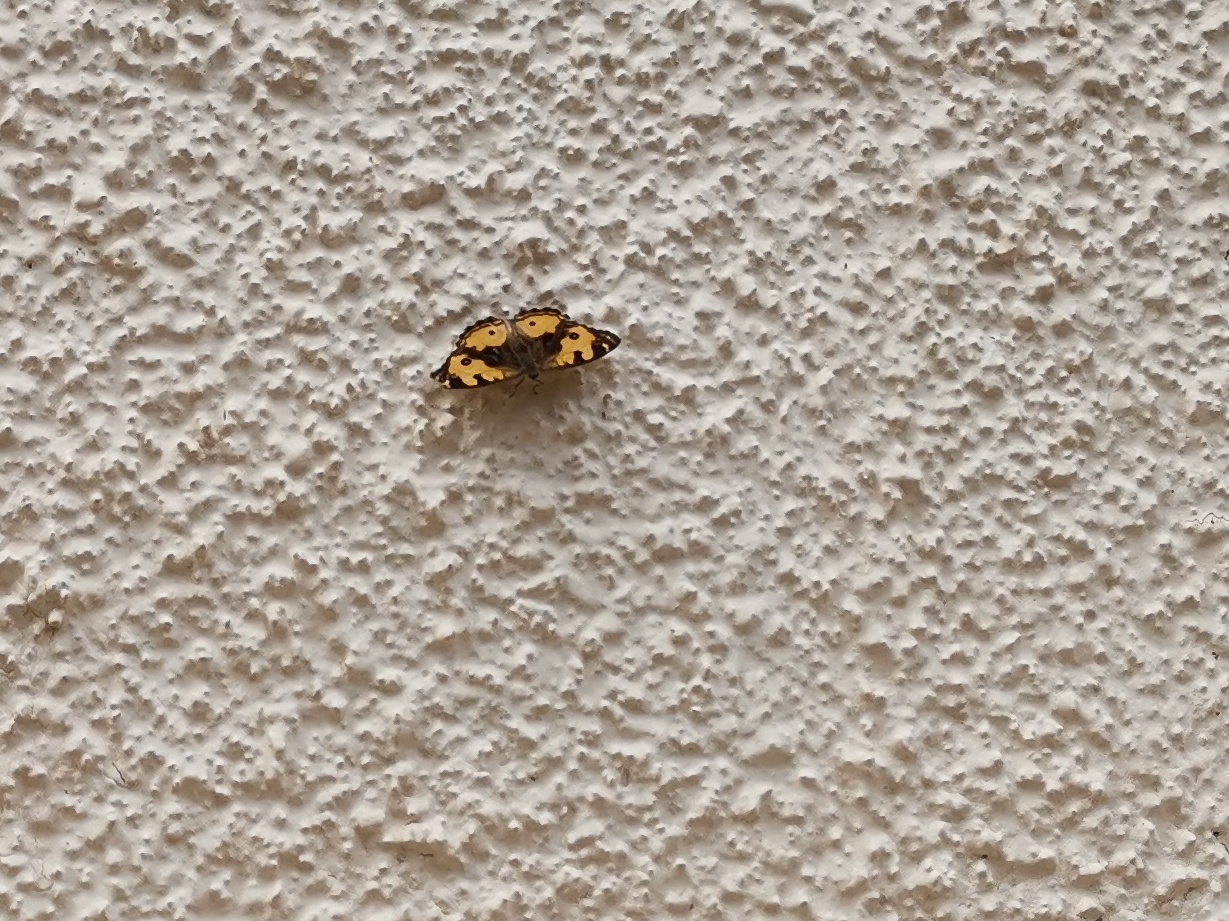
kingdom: Animalia
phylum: Arthropoda
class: Insecta
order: Lepidoptera
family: Nymphalidae
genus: Junonia
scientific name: Junonia hierta
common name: Yellow pansy
